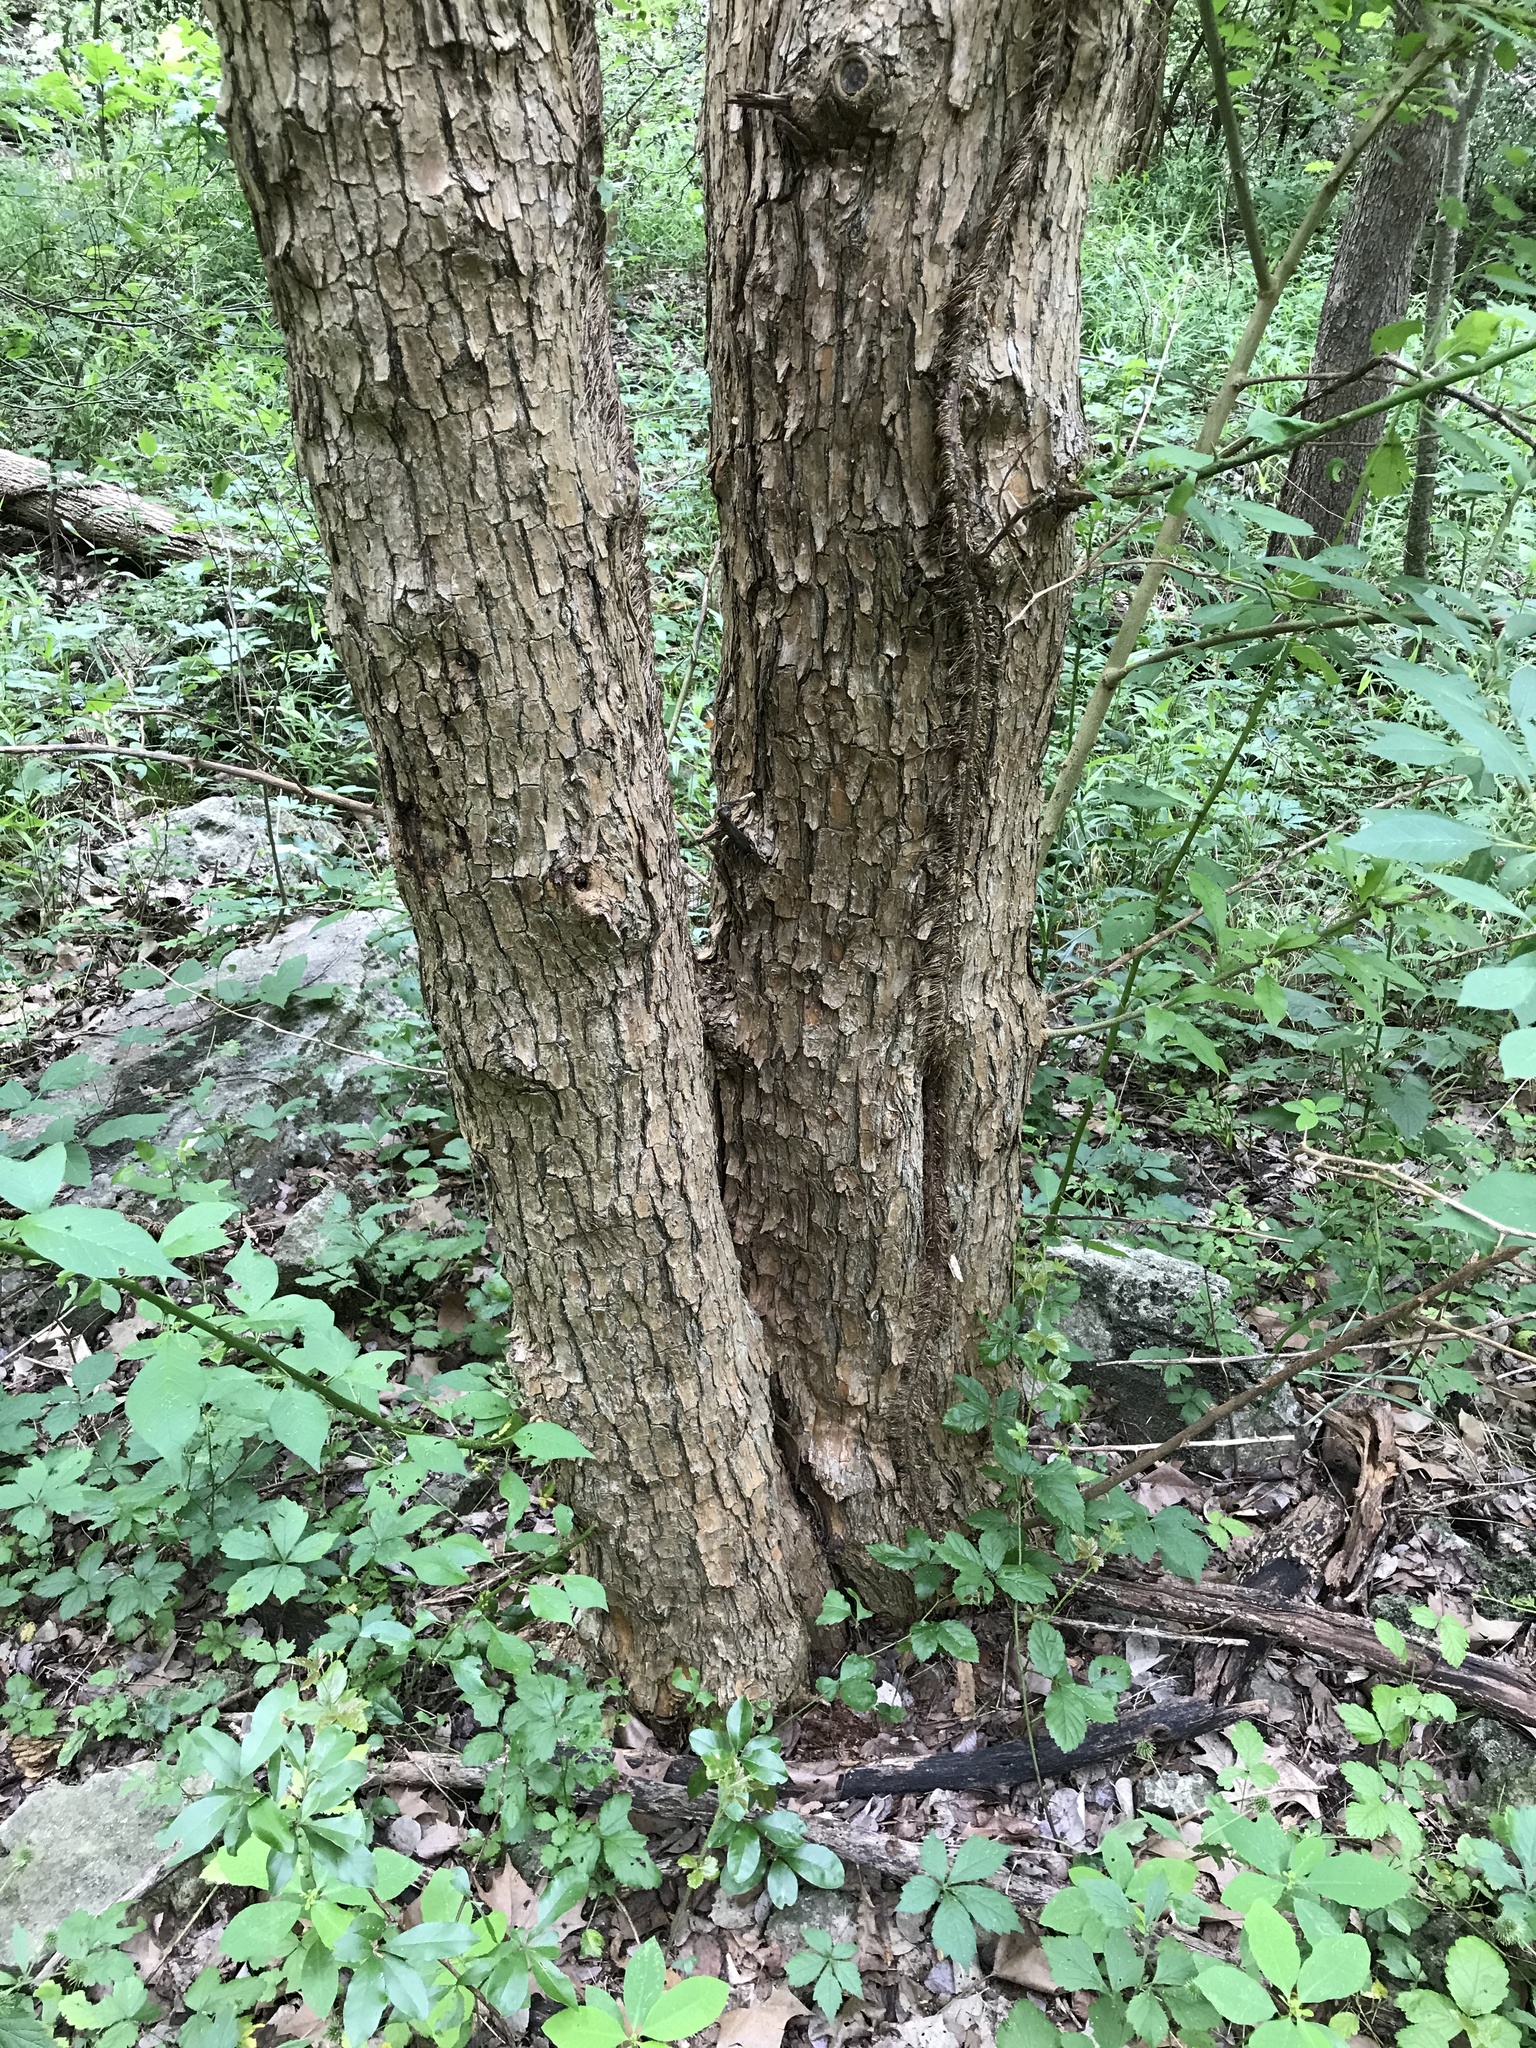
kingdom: Plantae
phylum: Tracheophyta
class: Magnoliopsida
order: Rosales
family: Moraceae
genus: Maclura
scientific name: Maclura pomifera
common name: Osage-orange
